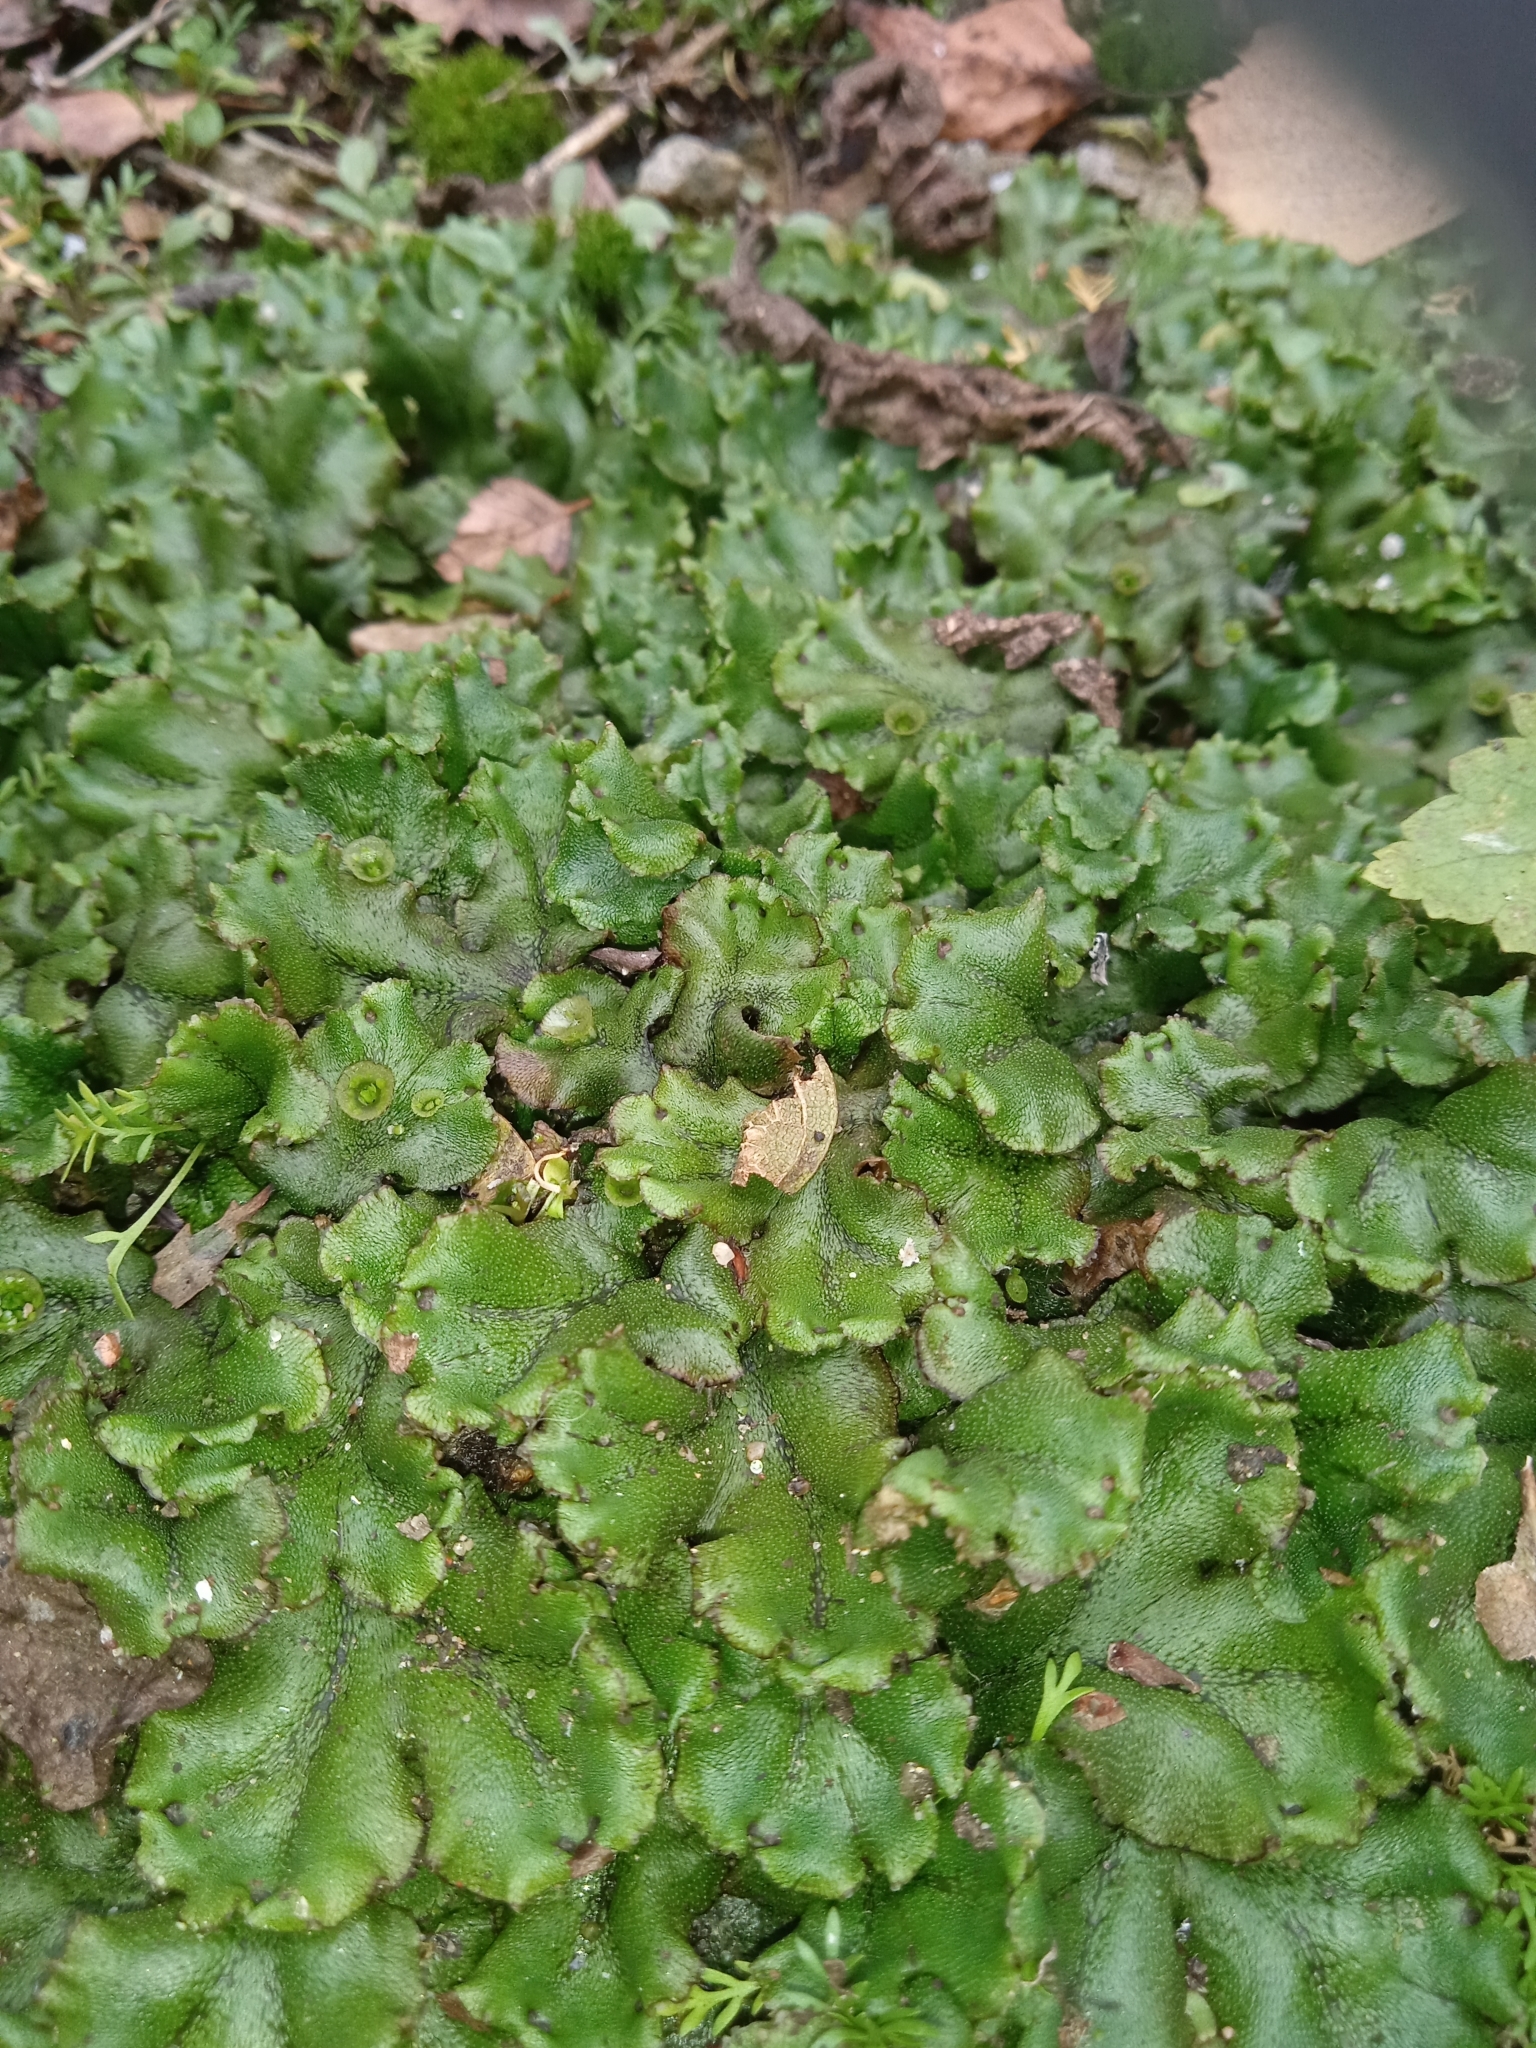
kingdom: Plantae
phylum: Marchantiophyta
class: Marchantiopsida
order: Marchantiales
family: Marchantiaceae
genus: Marchantia
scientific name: Marchantia polymorpha
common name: Common liverwort
